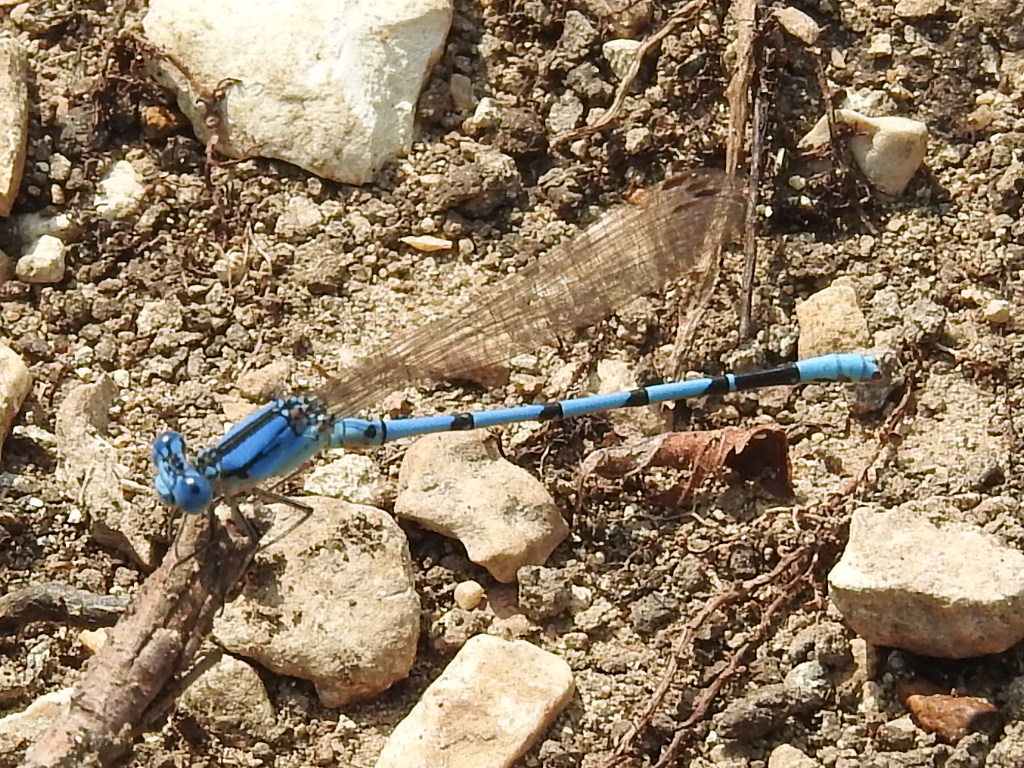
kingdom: Animalia
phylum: Arthropoda
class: Insecta
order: Odonata
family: Coenagrionidae
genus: Argia
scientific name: Argia nahuana
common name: Aztec dancer
